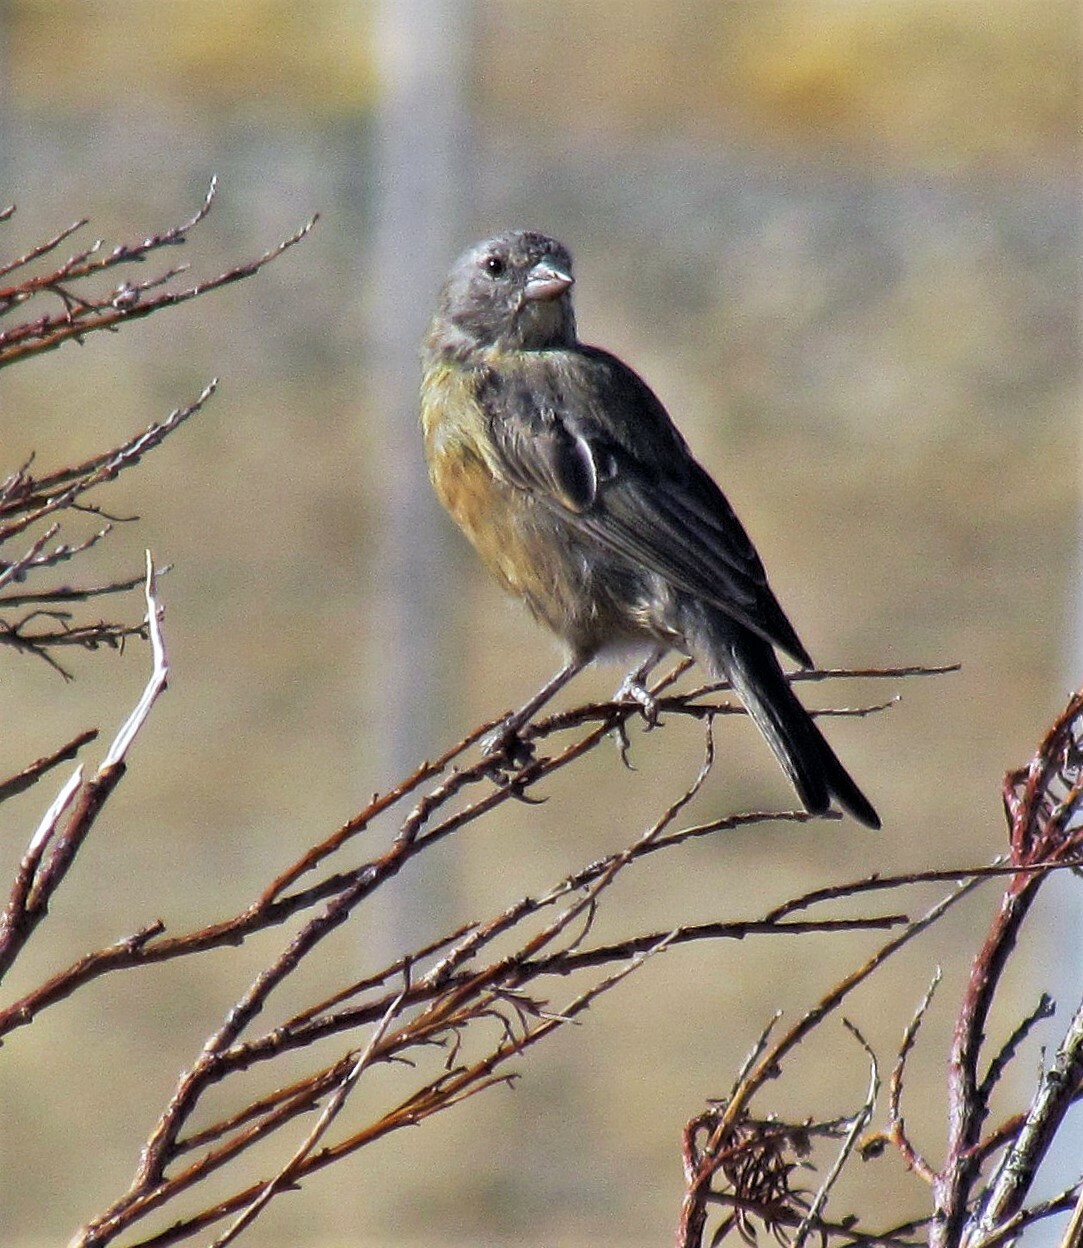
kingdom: Animalia
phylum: Chordata
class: Aves
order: Passeriformes
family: Thraupidae
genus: Phrygilus
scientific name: Phrygilus gayi
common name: Grey-hooded sierra finch
